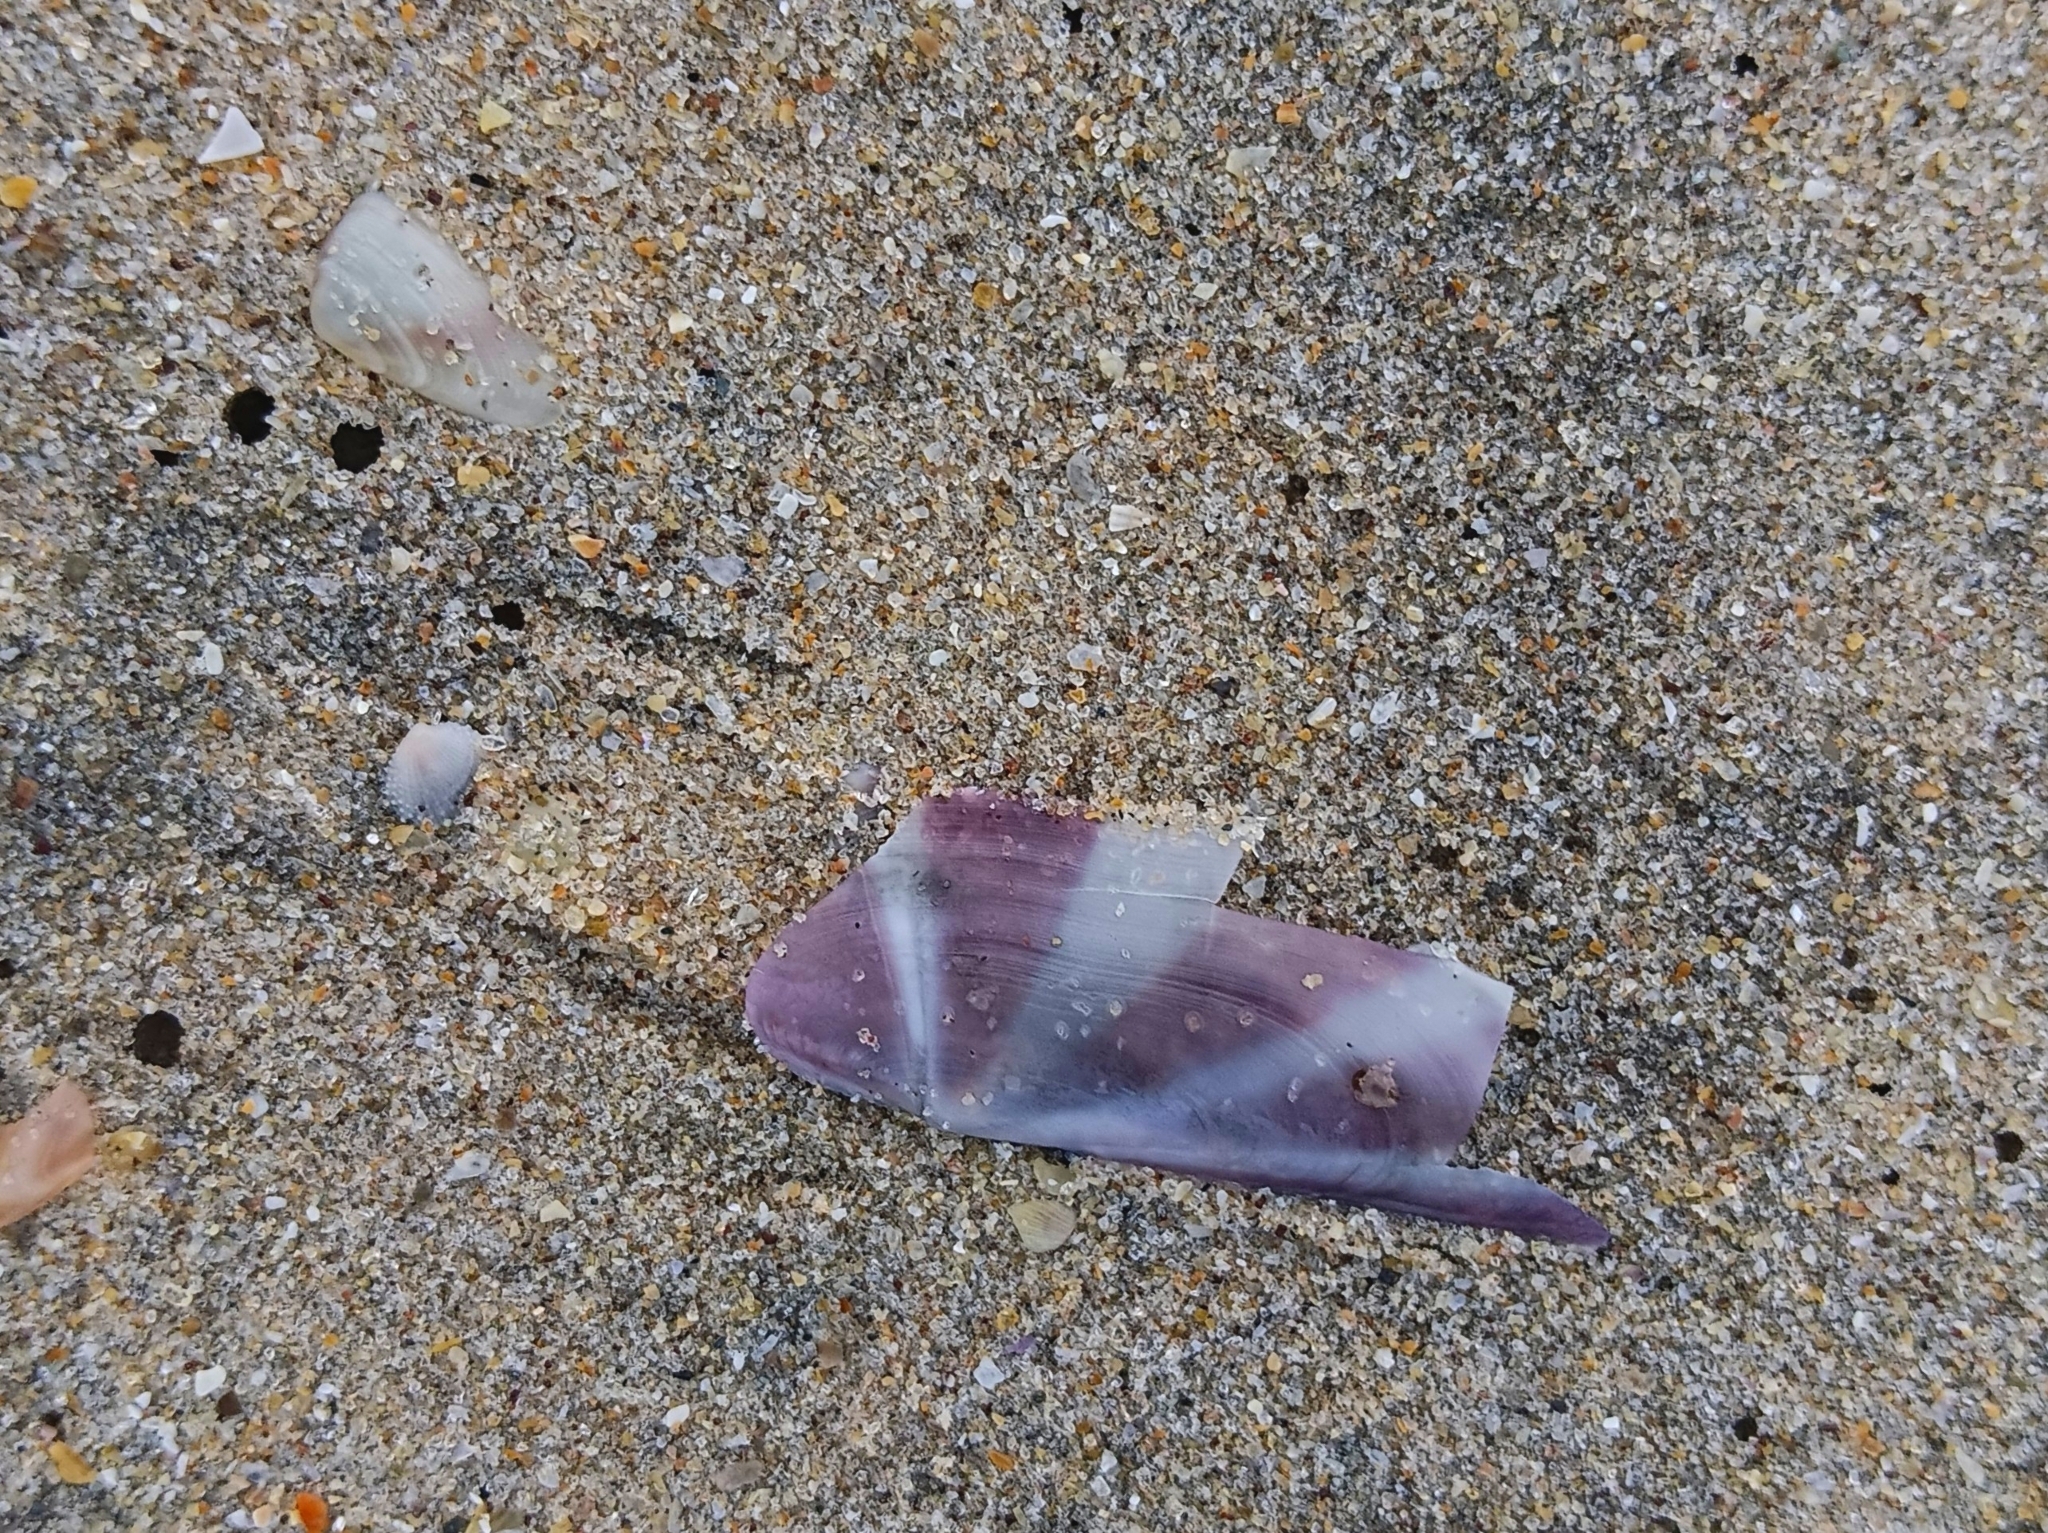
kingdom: Animalia
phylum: Mollusca
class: Bivalvia
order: Adapedonta
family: Pharidae
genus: Siliqua
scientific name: Siliqua radiata
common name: Sunset razor clam
